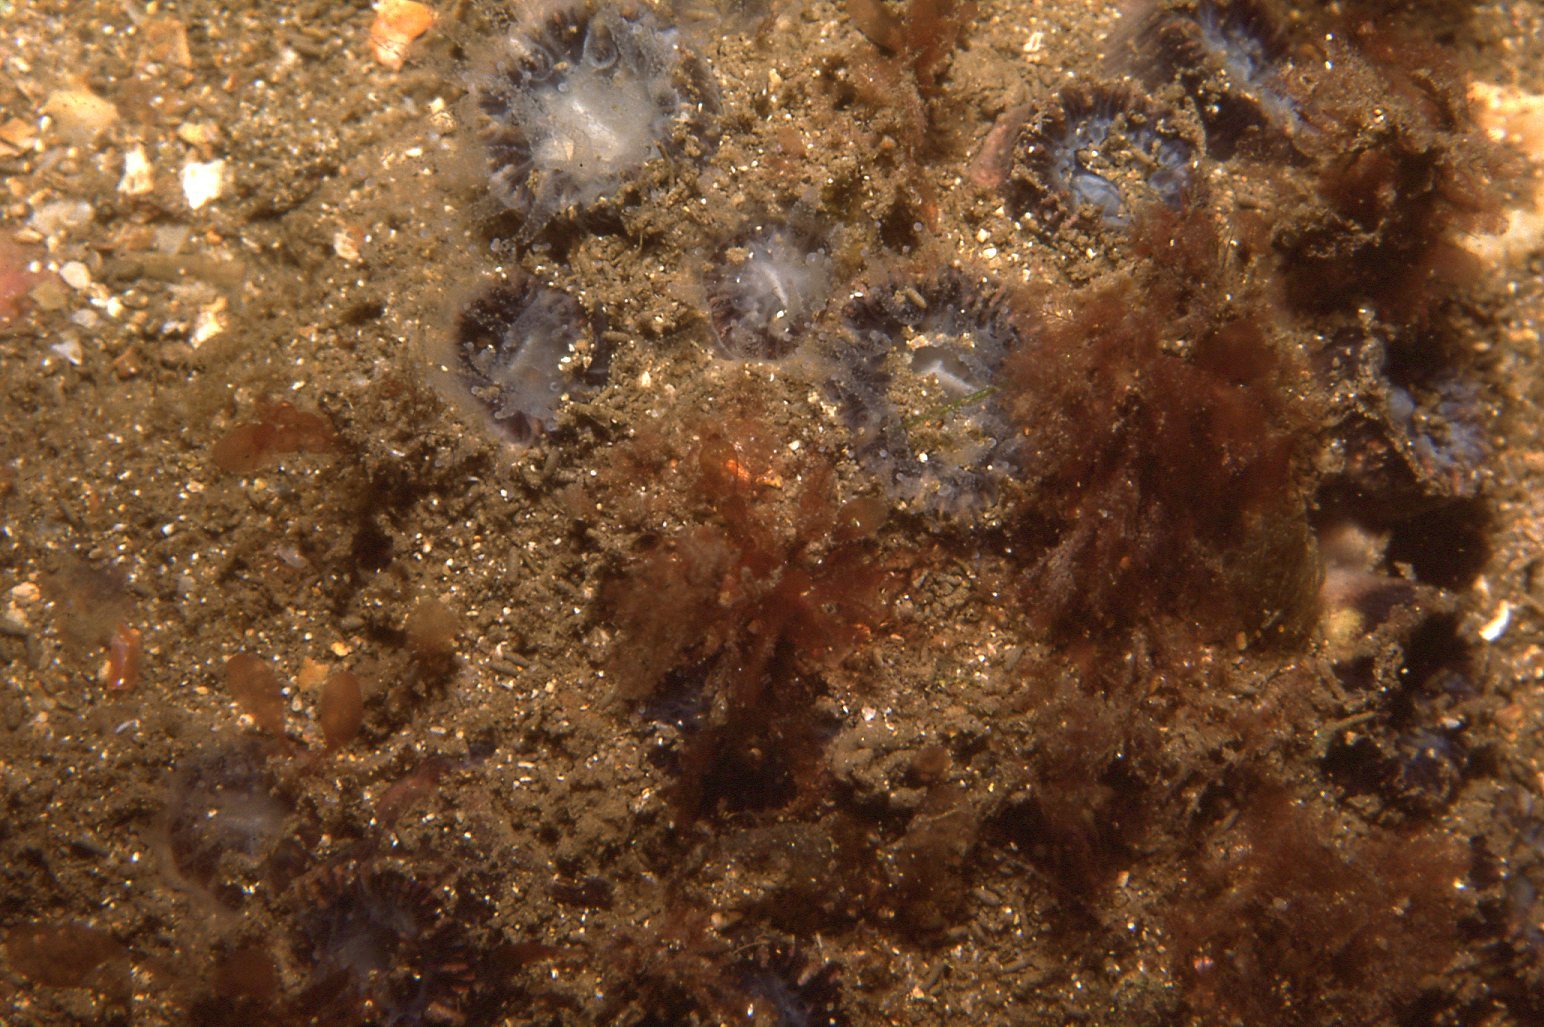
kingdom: Animalia
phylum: Cnidaria
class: Anthozoa
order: Scleractinia
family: Astrangiidae
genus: Astrangia
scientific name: Astrangia woodsi
